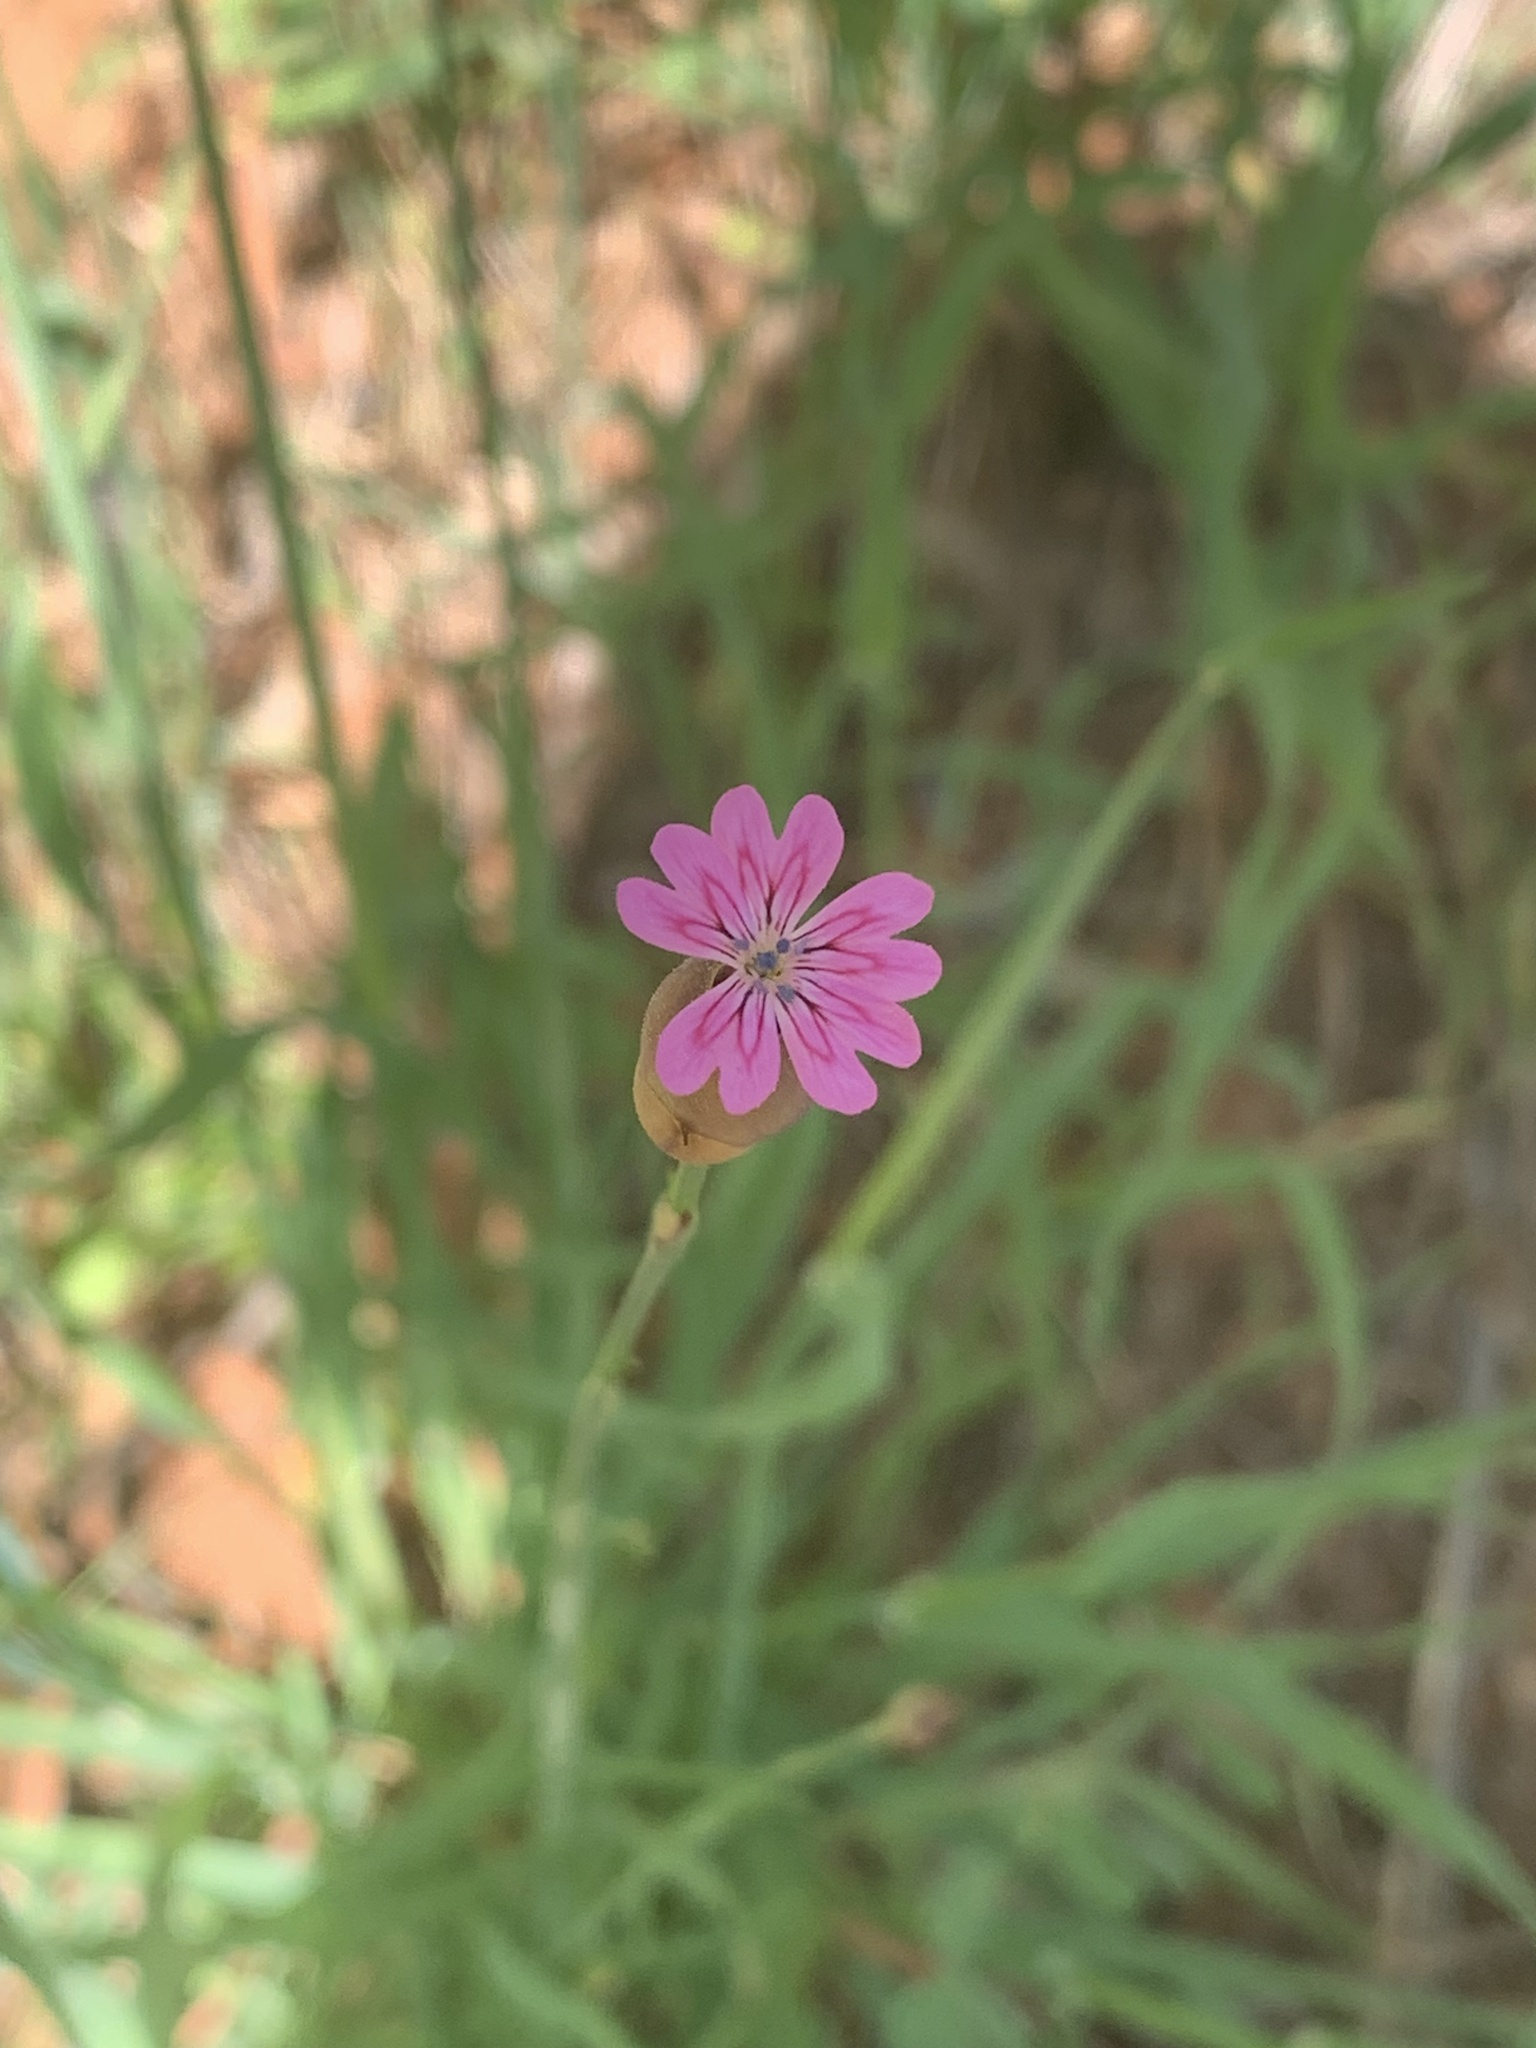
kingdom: Plantae
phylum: Tracheophyta
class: Magnoliopsida
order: Caryophyllales
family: Caryophyllaceae
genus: Petrorhagia
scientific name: Petrorhagia dubia
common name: Hairypink
